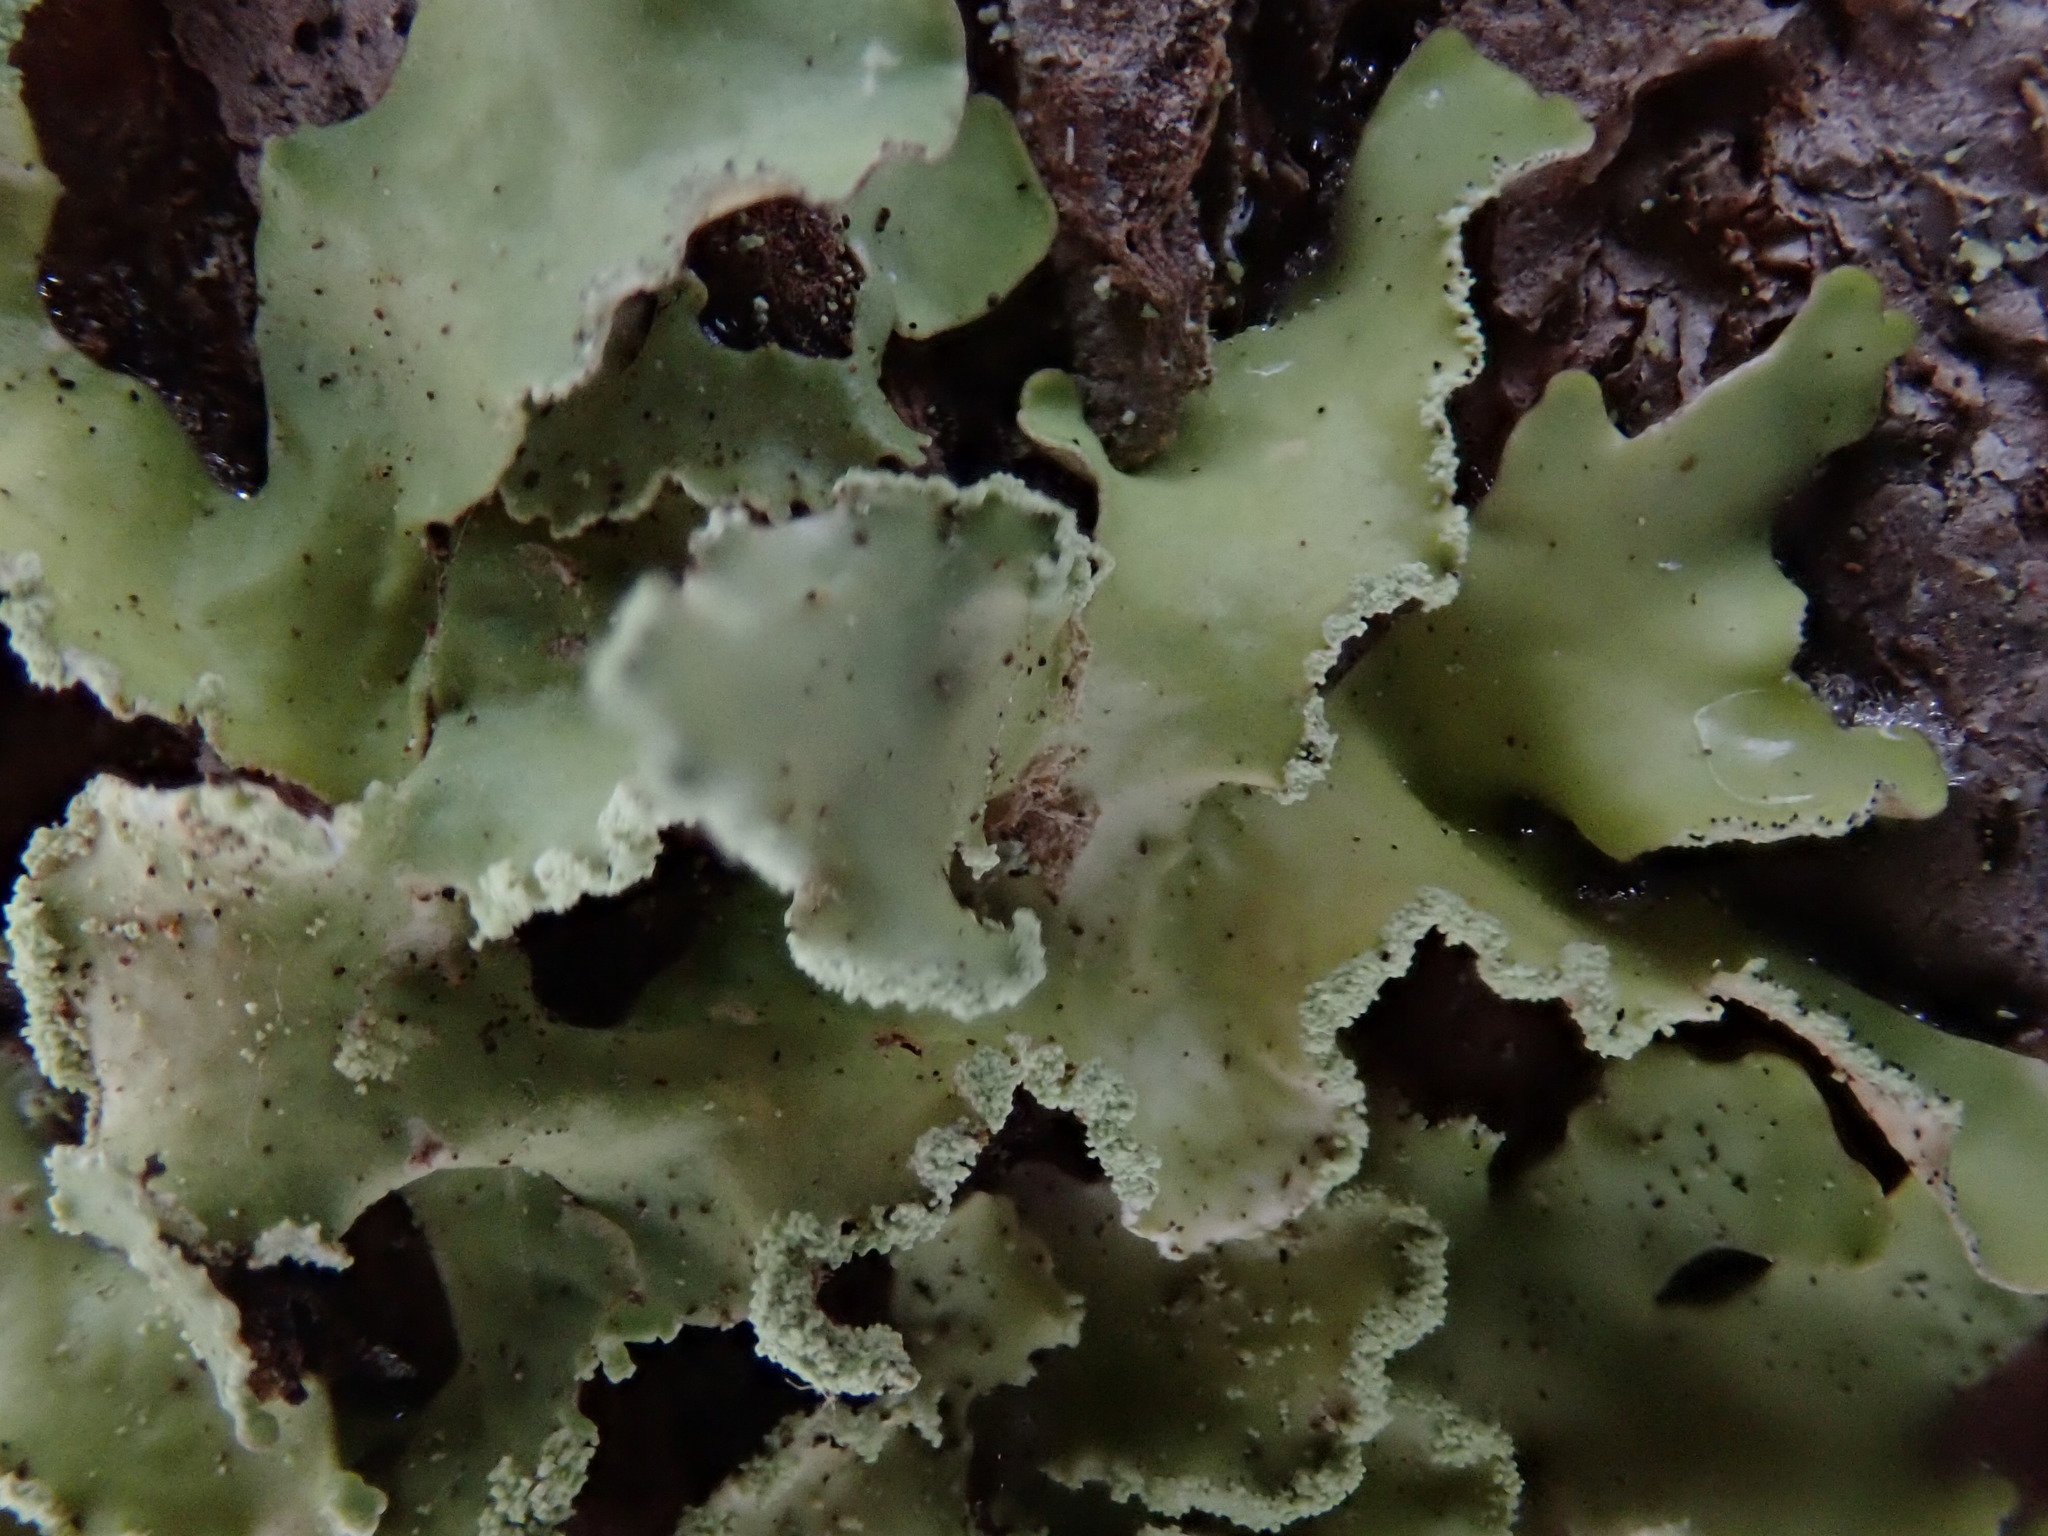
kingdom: Fungi
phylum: Ascomycota
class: Lecanoromycetes
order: Lecanorales
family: Parmeliaceae
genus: Usnocetraria
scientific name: Usnocetraria oakesiana
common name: Yellow ribbon lichen
